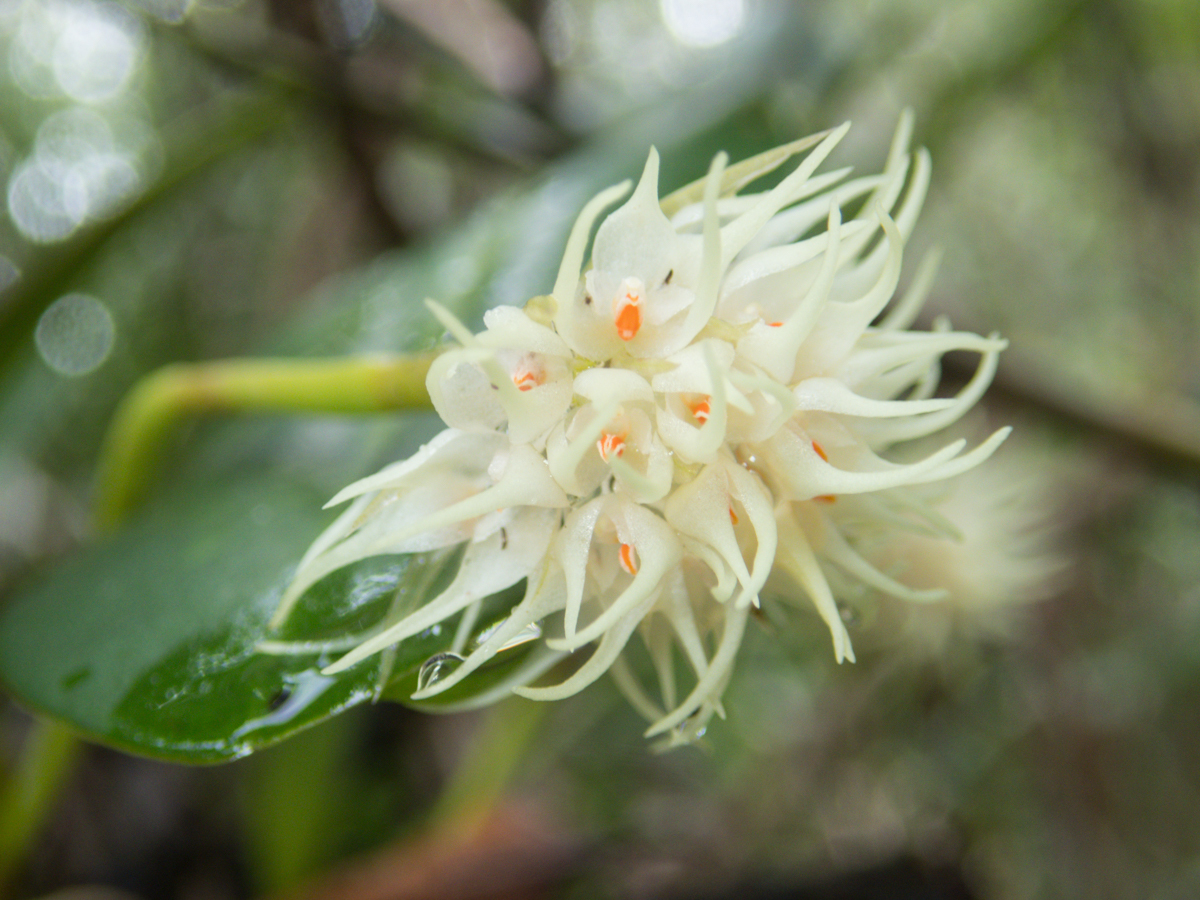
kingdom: Plantae
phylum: Tracheophyta
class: Liliopsida
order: Asparagales
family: Orchidaceae
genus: Bulbophyllum
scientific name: Bulbophyllum odoratissimum
